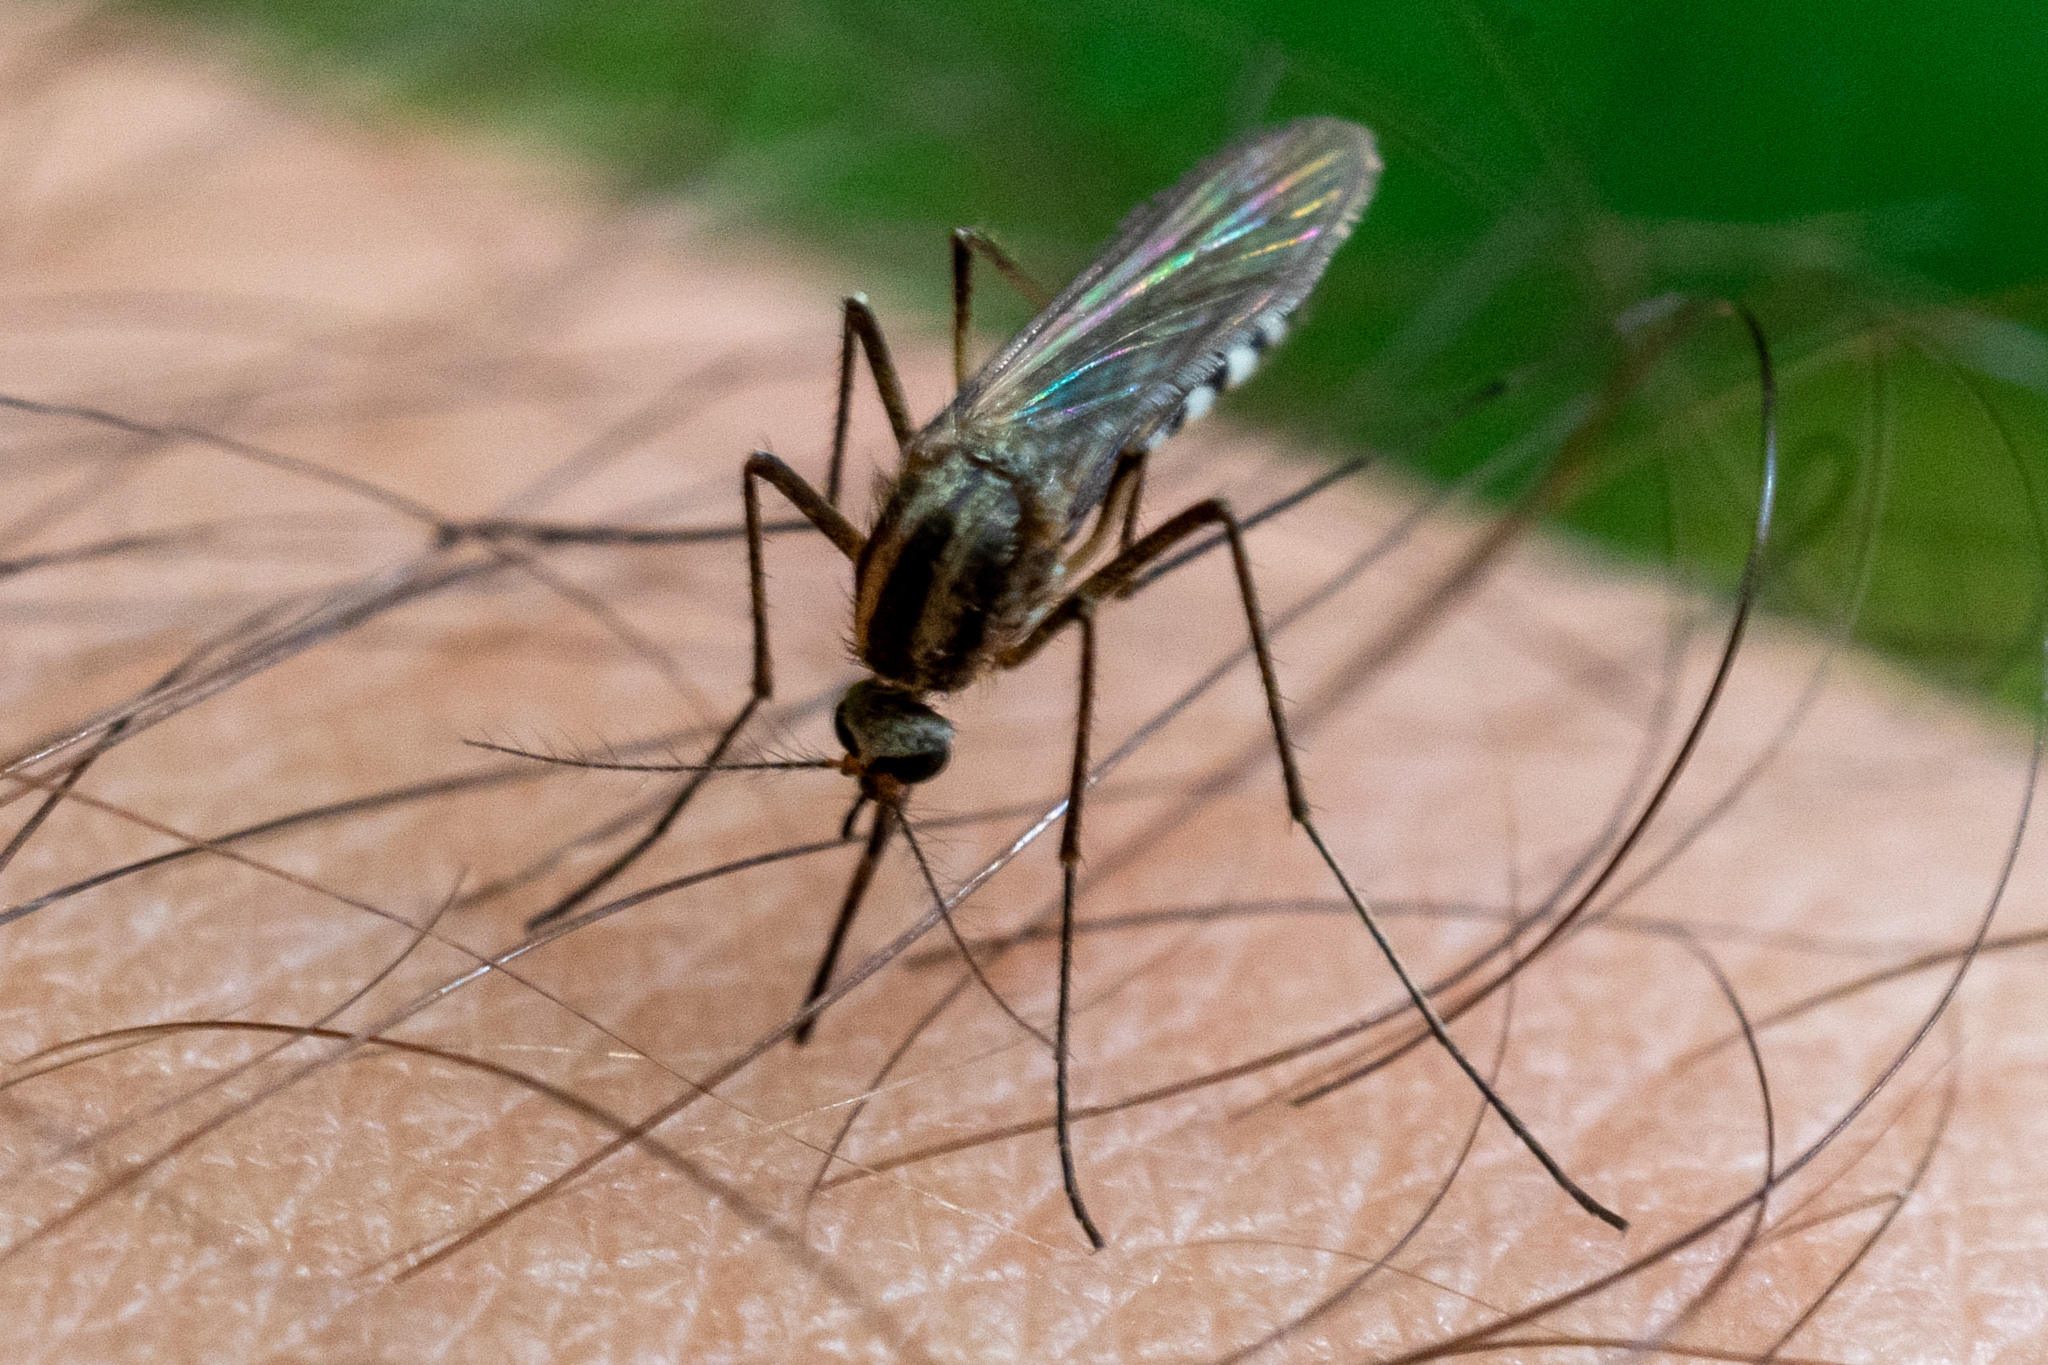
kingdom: Animalia
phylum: Arthropoda
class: Insecta
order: Diptera
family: Culicidae
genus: Aedes
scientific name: Aedes trivittatus
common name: Plains floodwater mosquito
